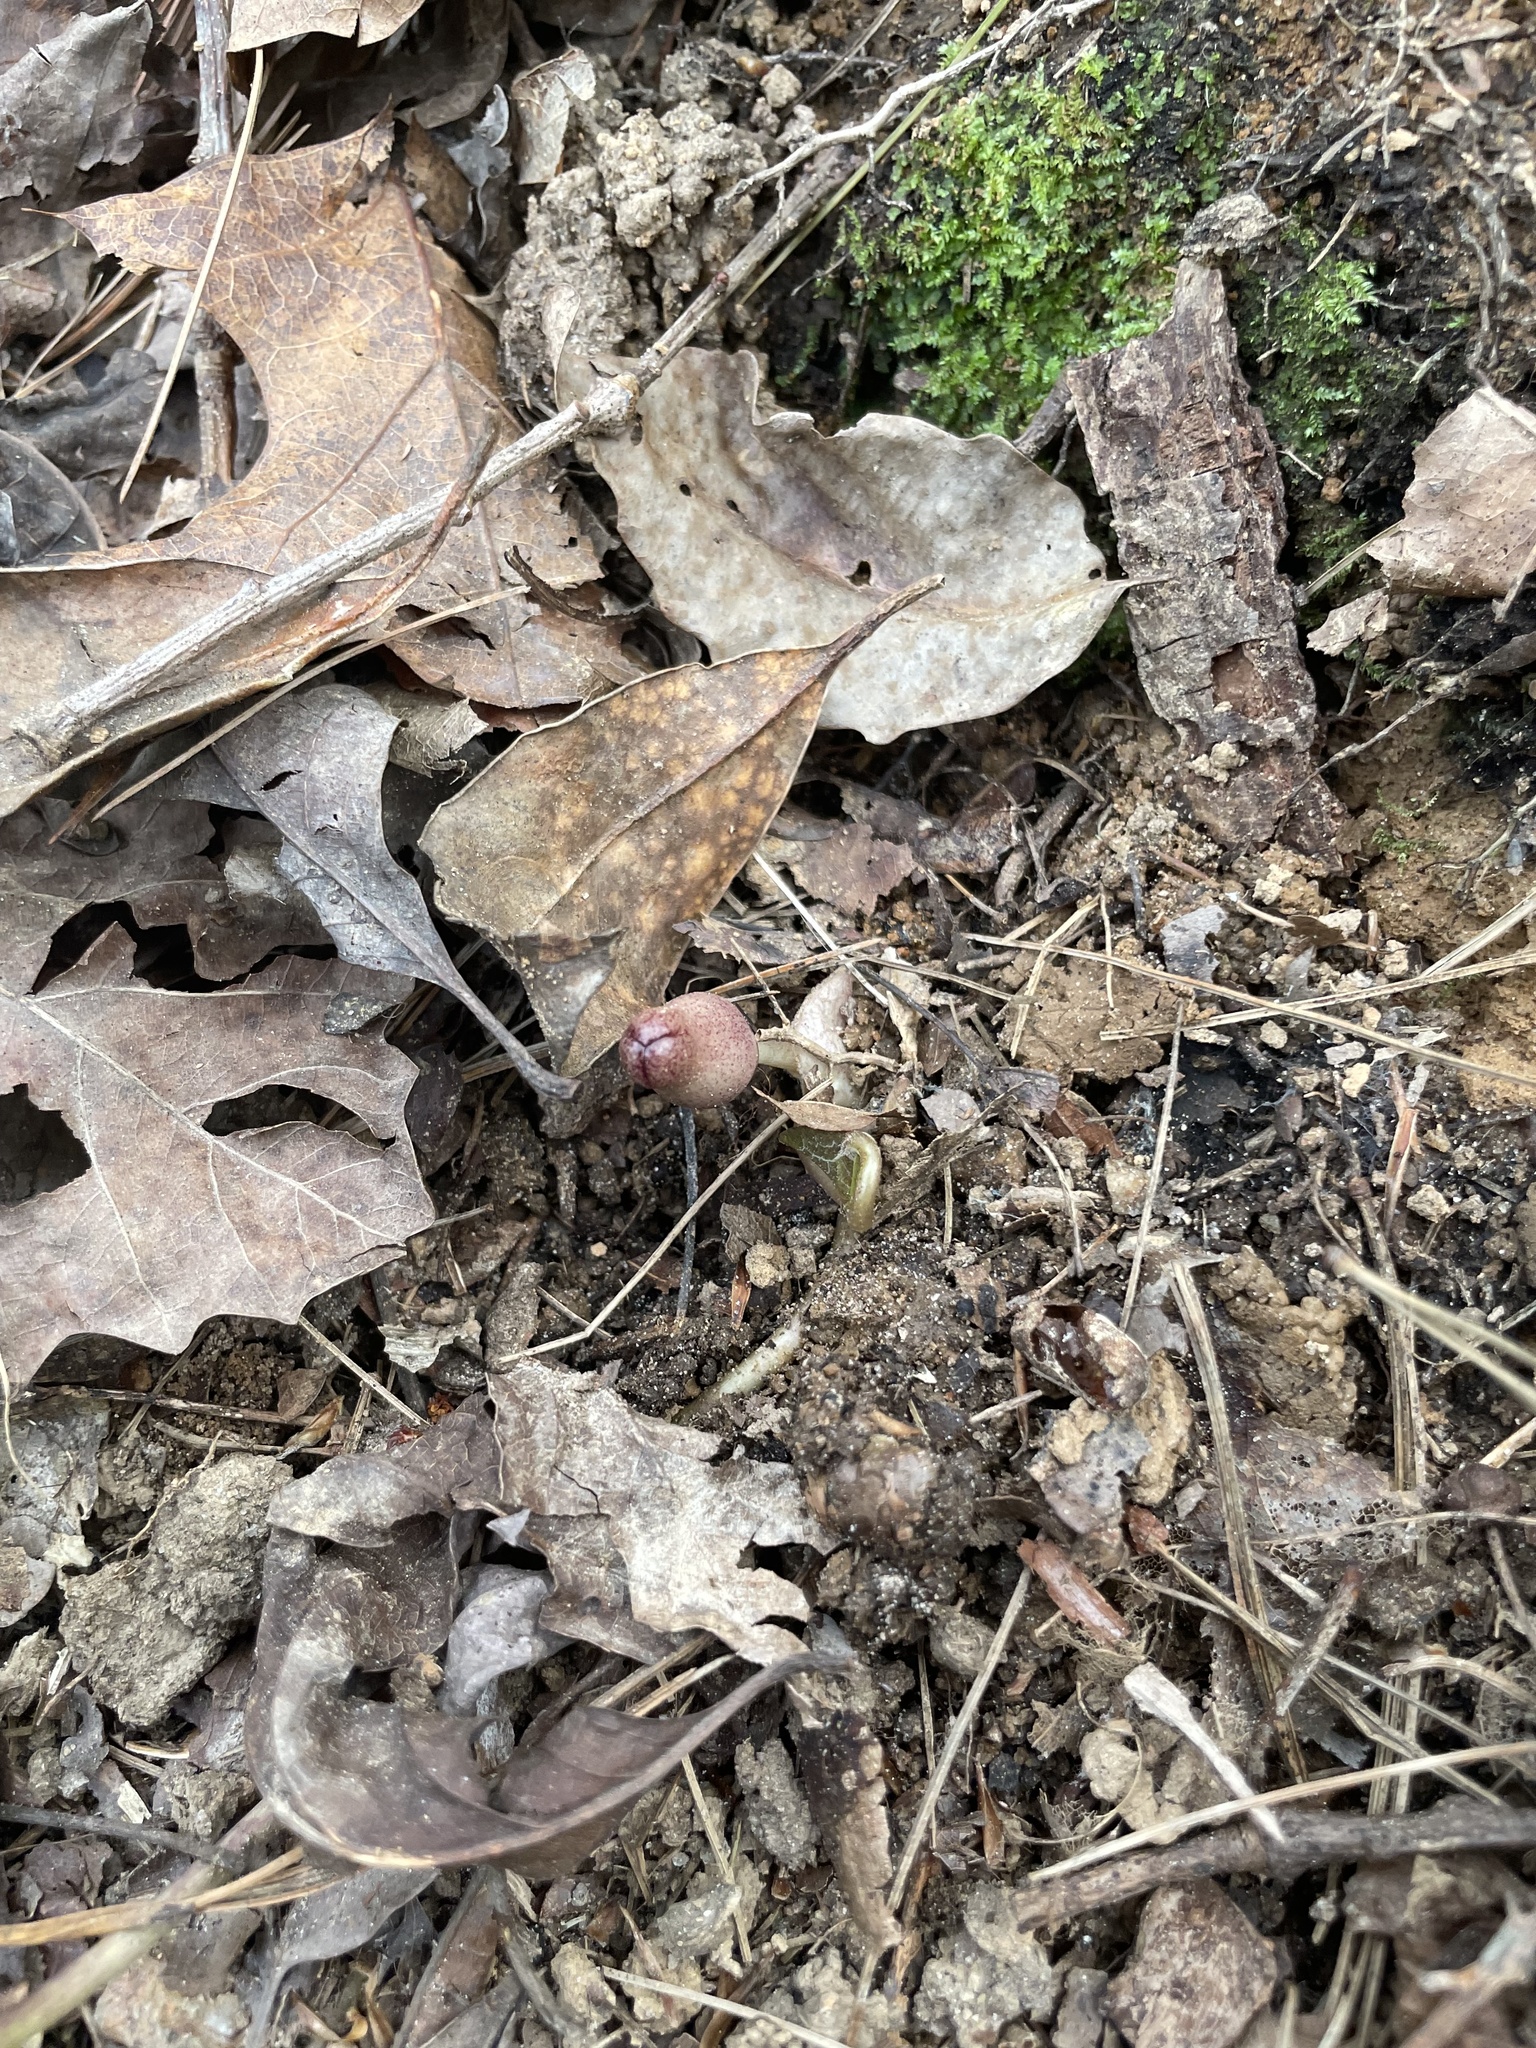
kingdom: Plantae
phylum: Tracheophyta
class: Magnoliopsida
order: Piperales
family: Aristolochiaceae
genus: Hexastylis
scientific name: Hexastylis arifolia
